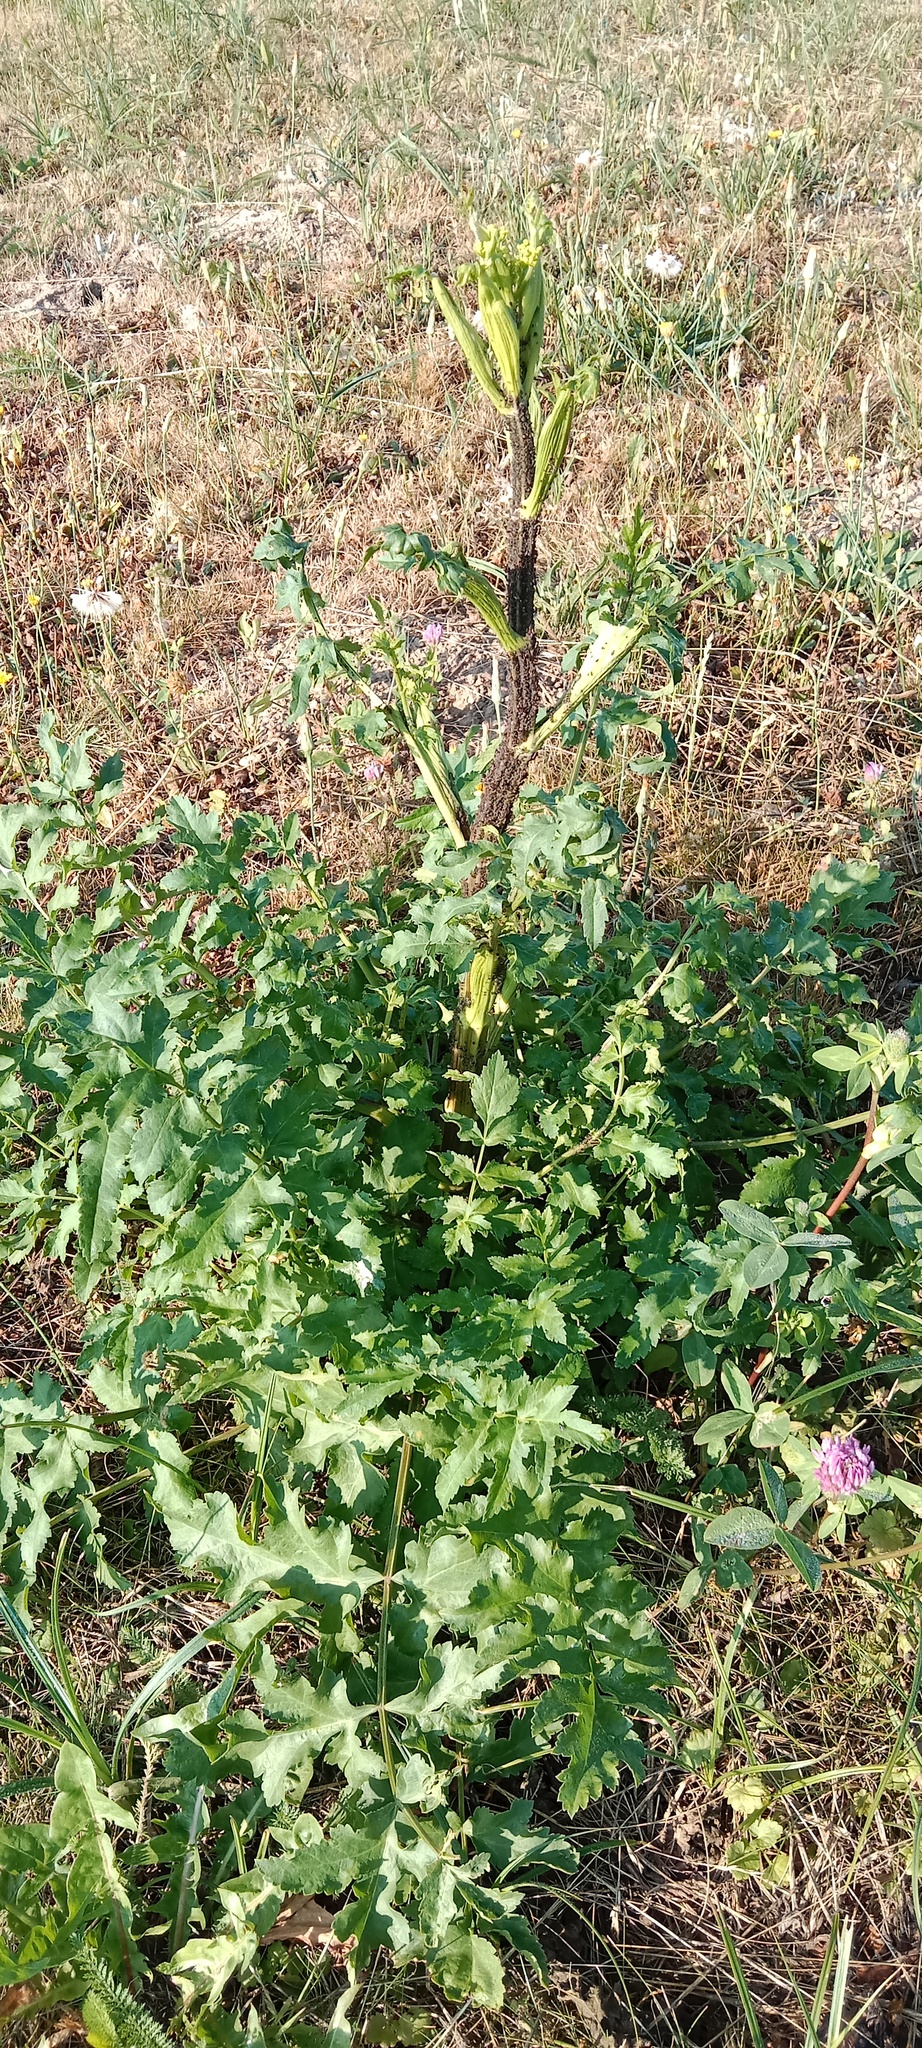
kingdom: Plantae
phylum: Tracheophyta
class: Magnoliopsida
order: Apiales
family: Apiaceae
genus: Pastinaca
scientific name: Pastinaca sativa
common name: Wild parsnip
